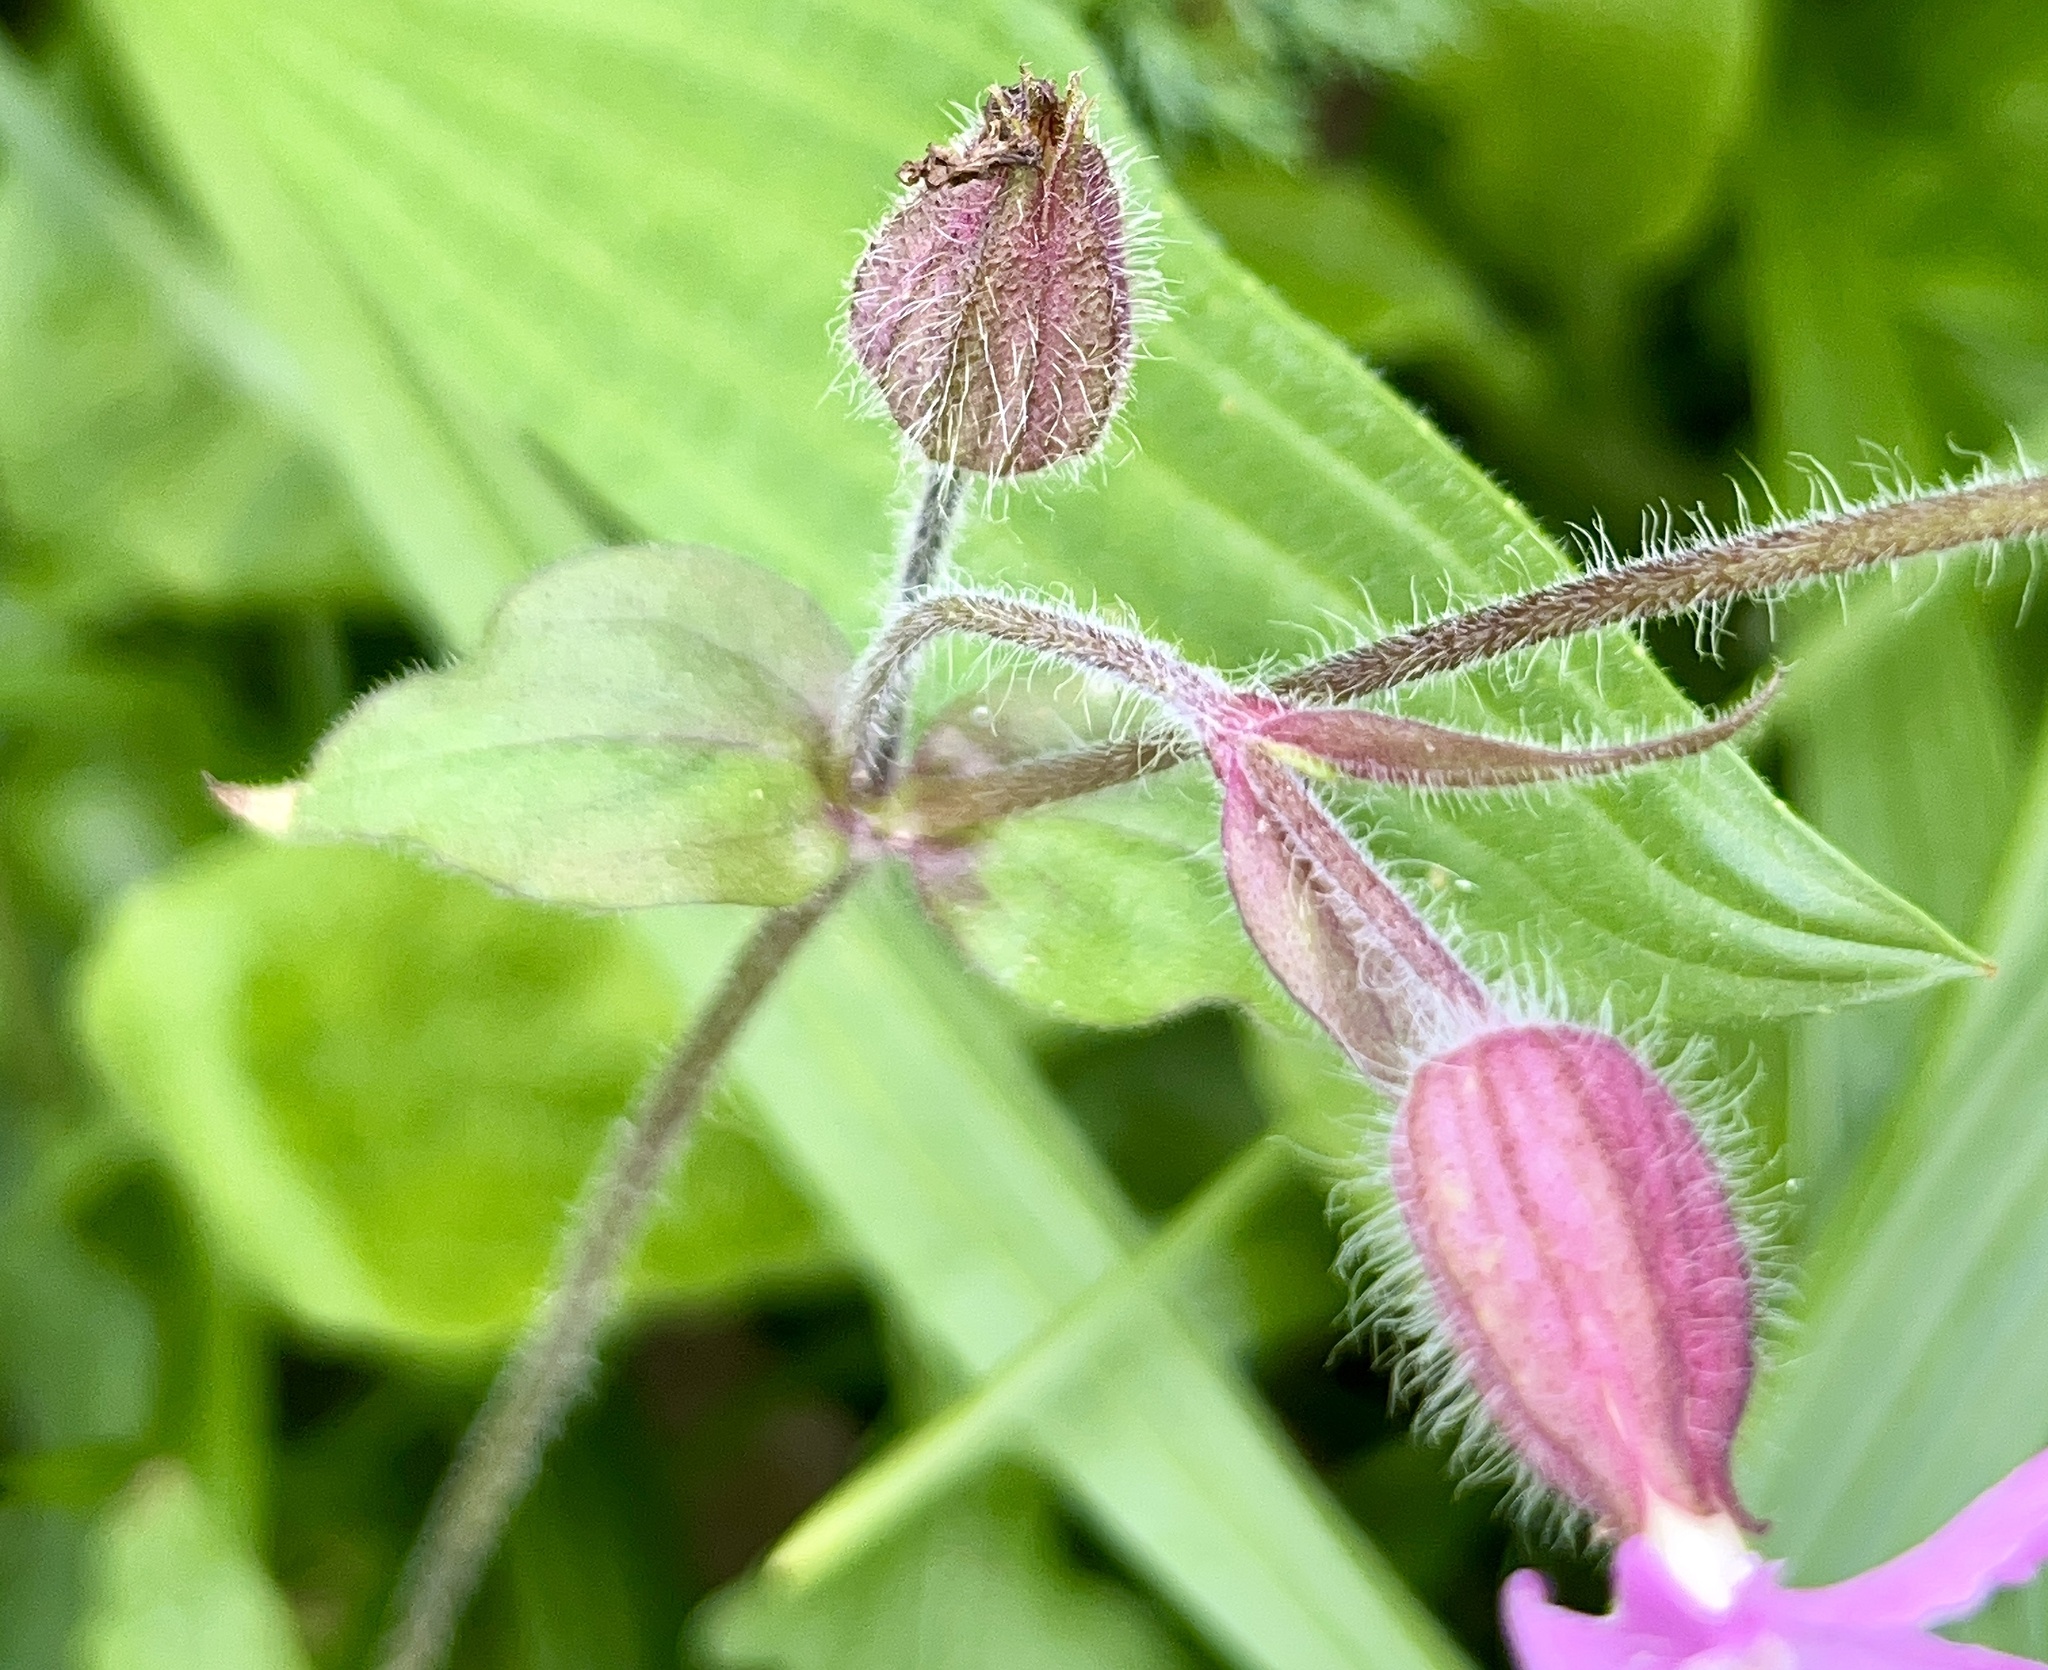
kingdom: Plantae
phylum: Tracheophyta
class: Magnoliopsida
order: Caryophyllales
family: Caryophyllaceae
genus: Silene
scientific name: Silene dioica
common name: Red campion
